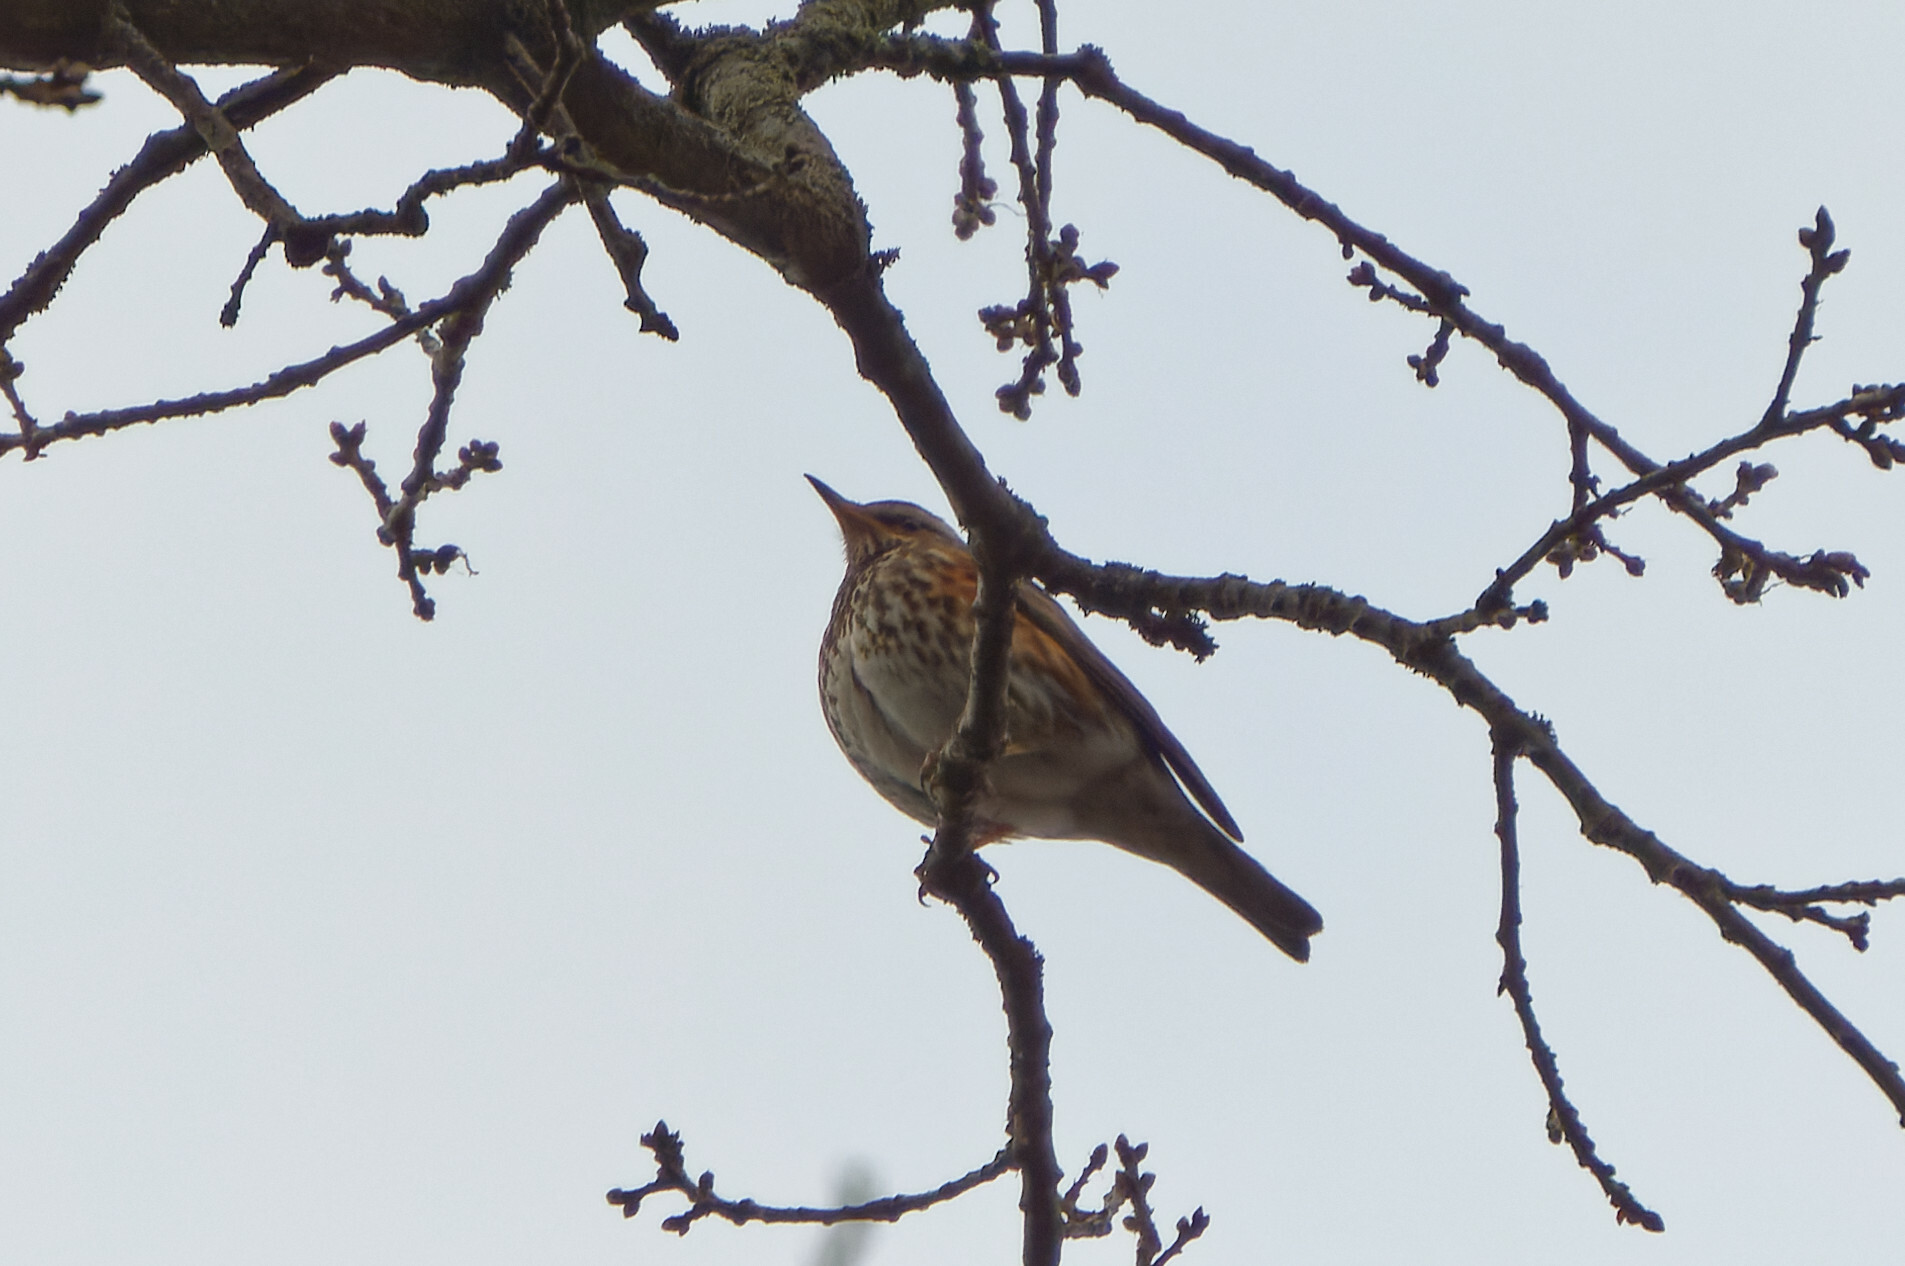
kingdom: Animalia
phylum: Chordata
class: Aves
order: Passeriformes
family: Turdidae
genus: Turdus
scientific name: Turdus iliacus
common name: Redwing
